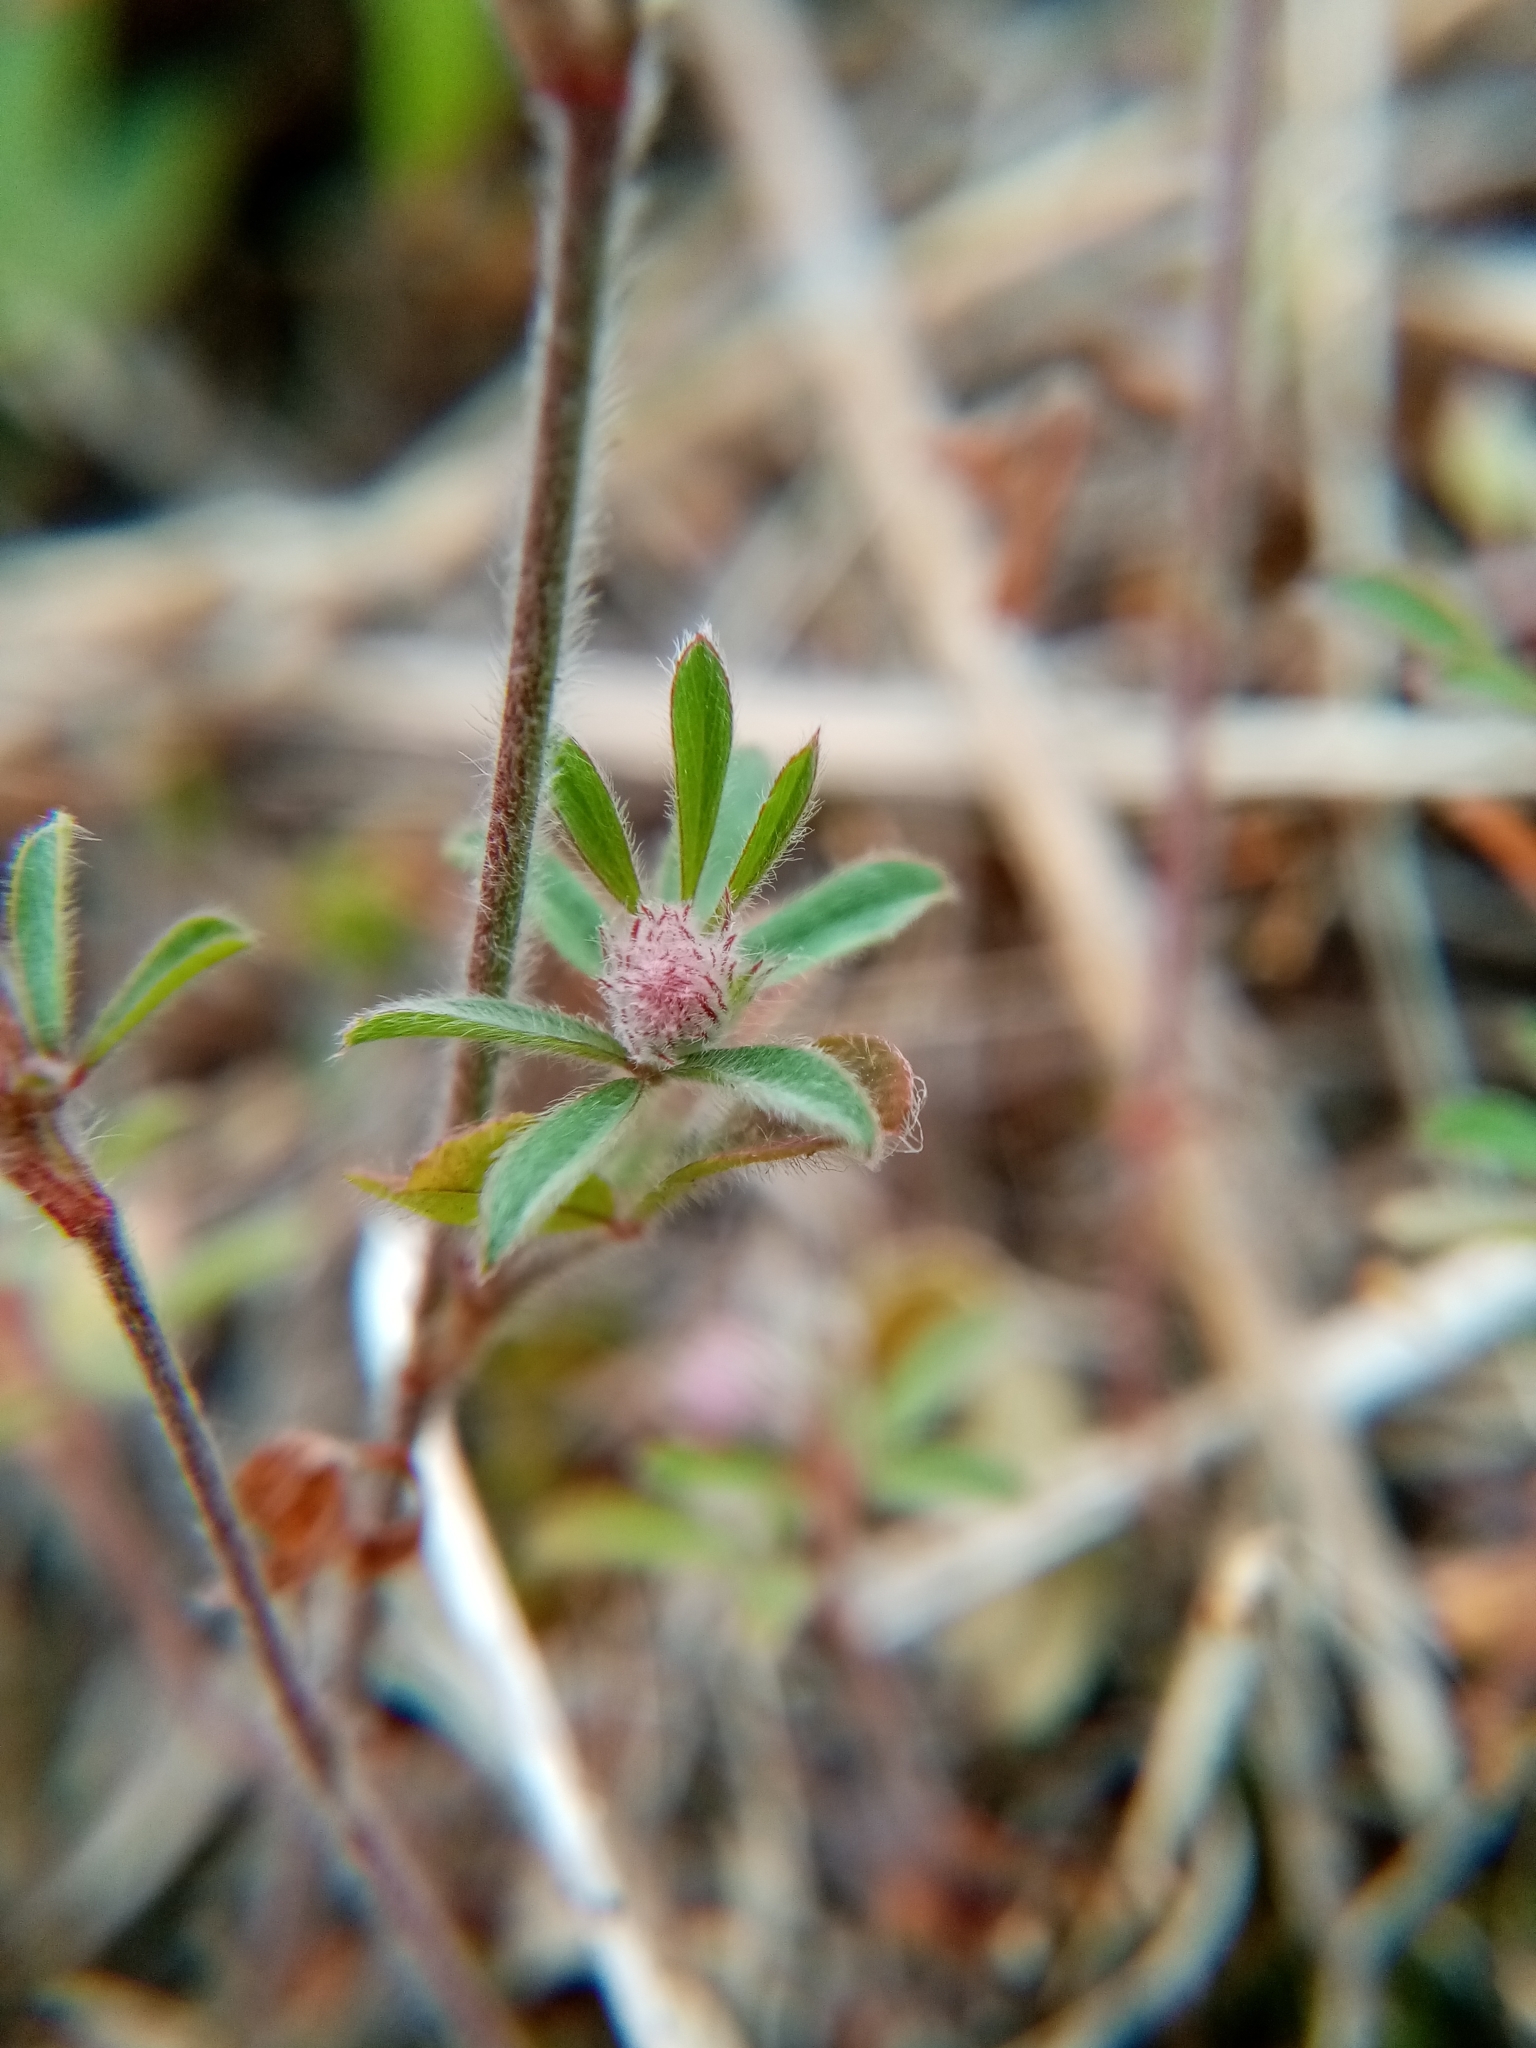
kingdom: Plantae
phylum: Tracheophyta
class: Magnoliopsida
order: Fabales
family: Fabaceae
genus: Trifolium
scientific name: Trifolium arvense
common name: Hare's-foot clover
